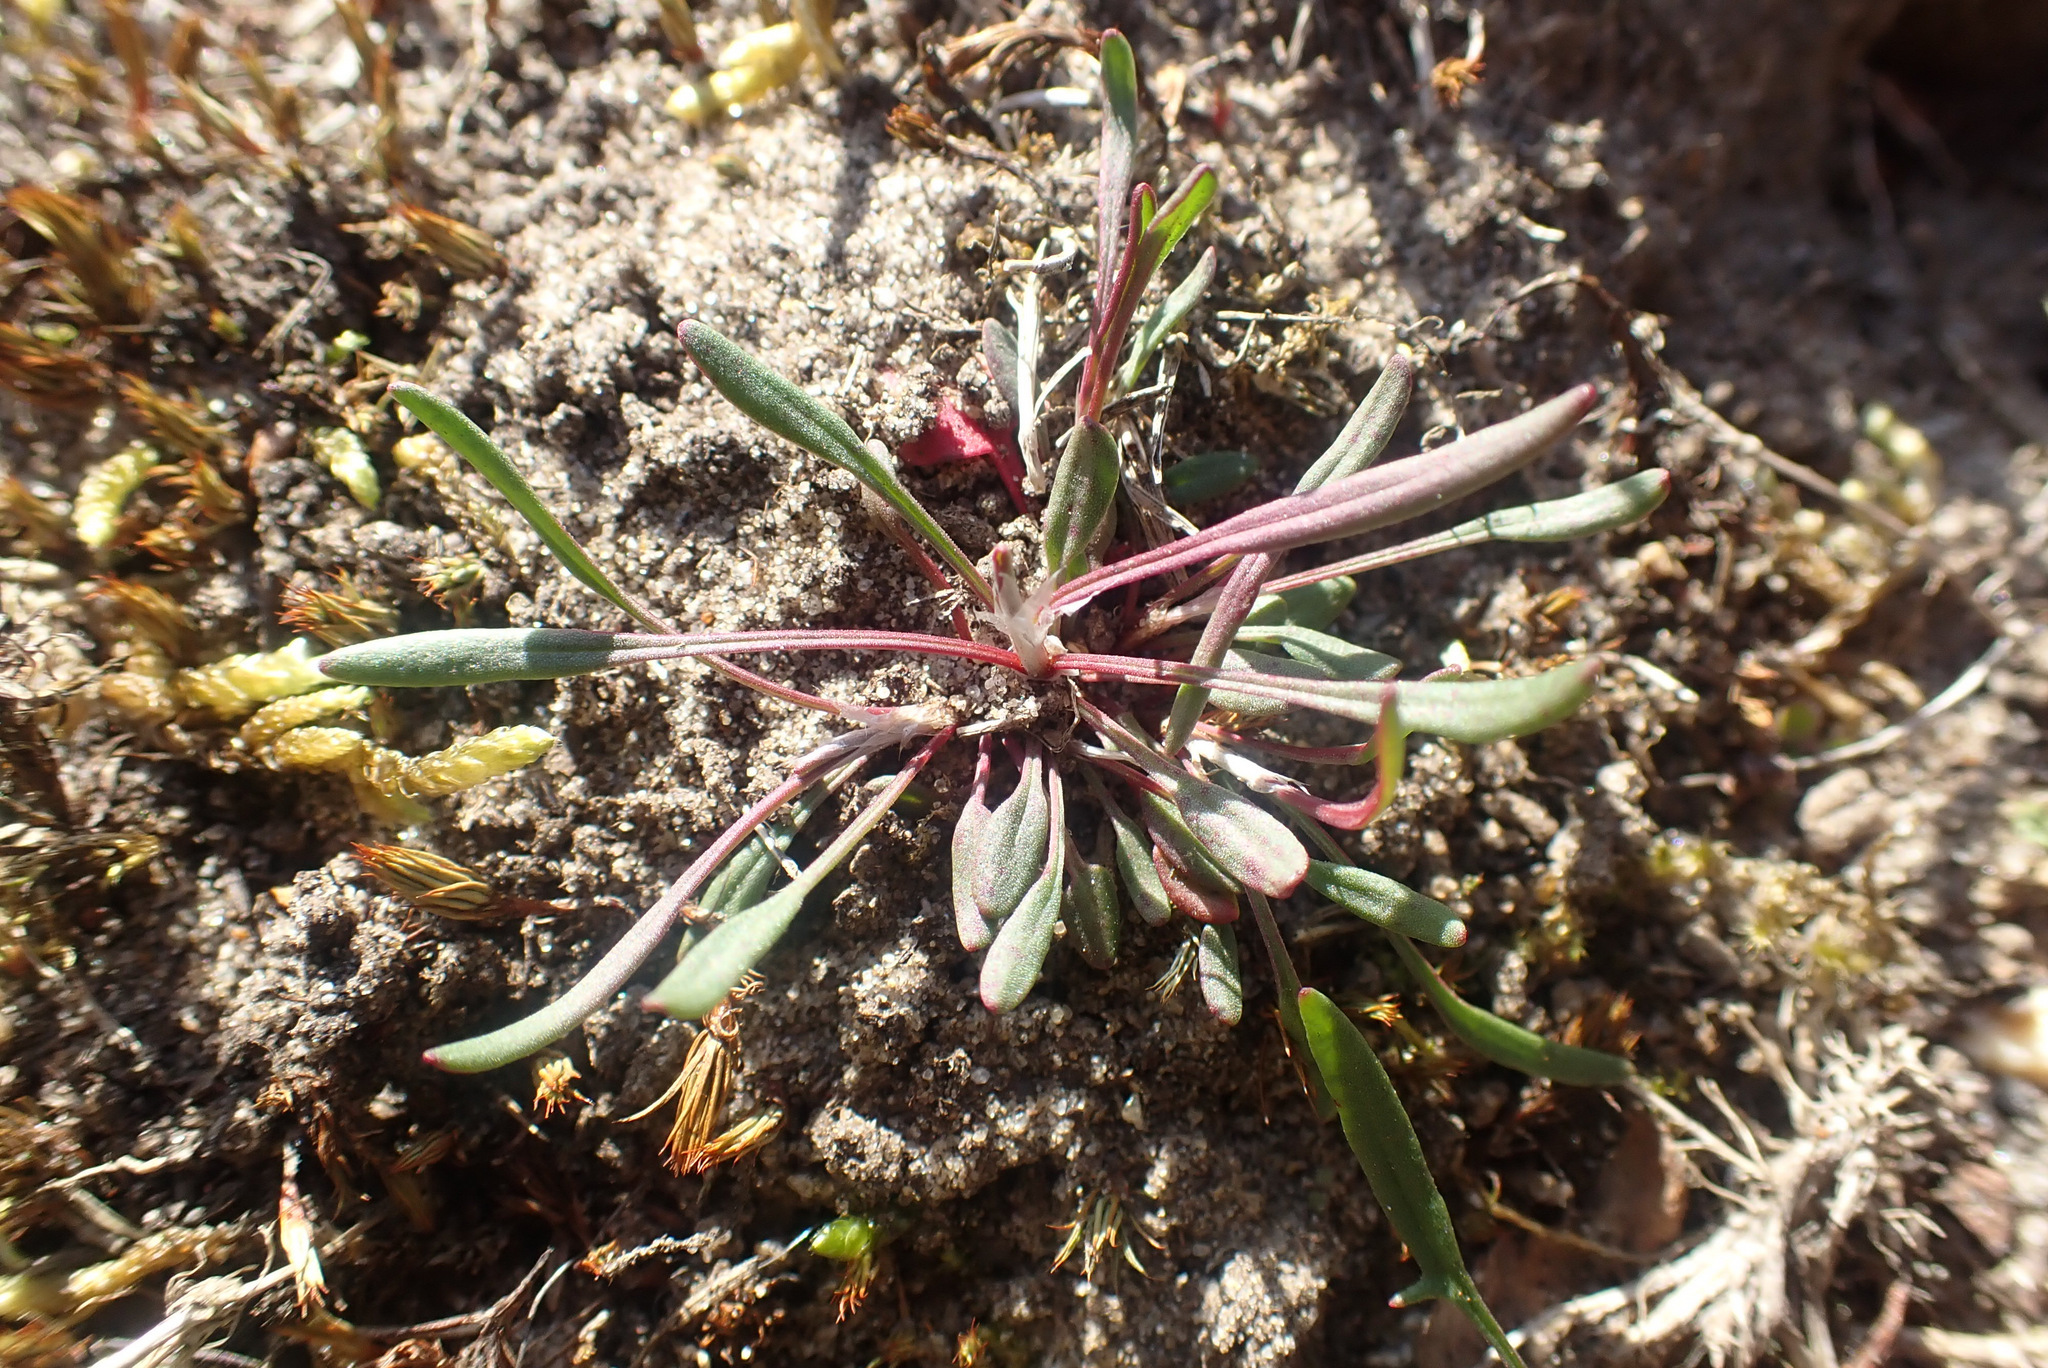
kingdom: Plantae
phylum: Tracheophyta
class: Magnoliopsida
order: Caryophyllales
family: Polygonaceae
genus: Rumex
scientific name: Rumex acetosella
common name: Common sheep sorrel
